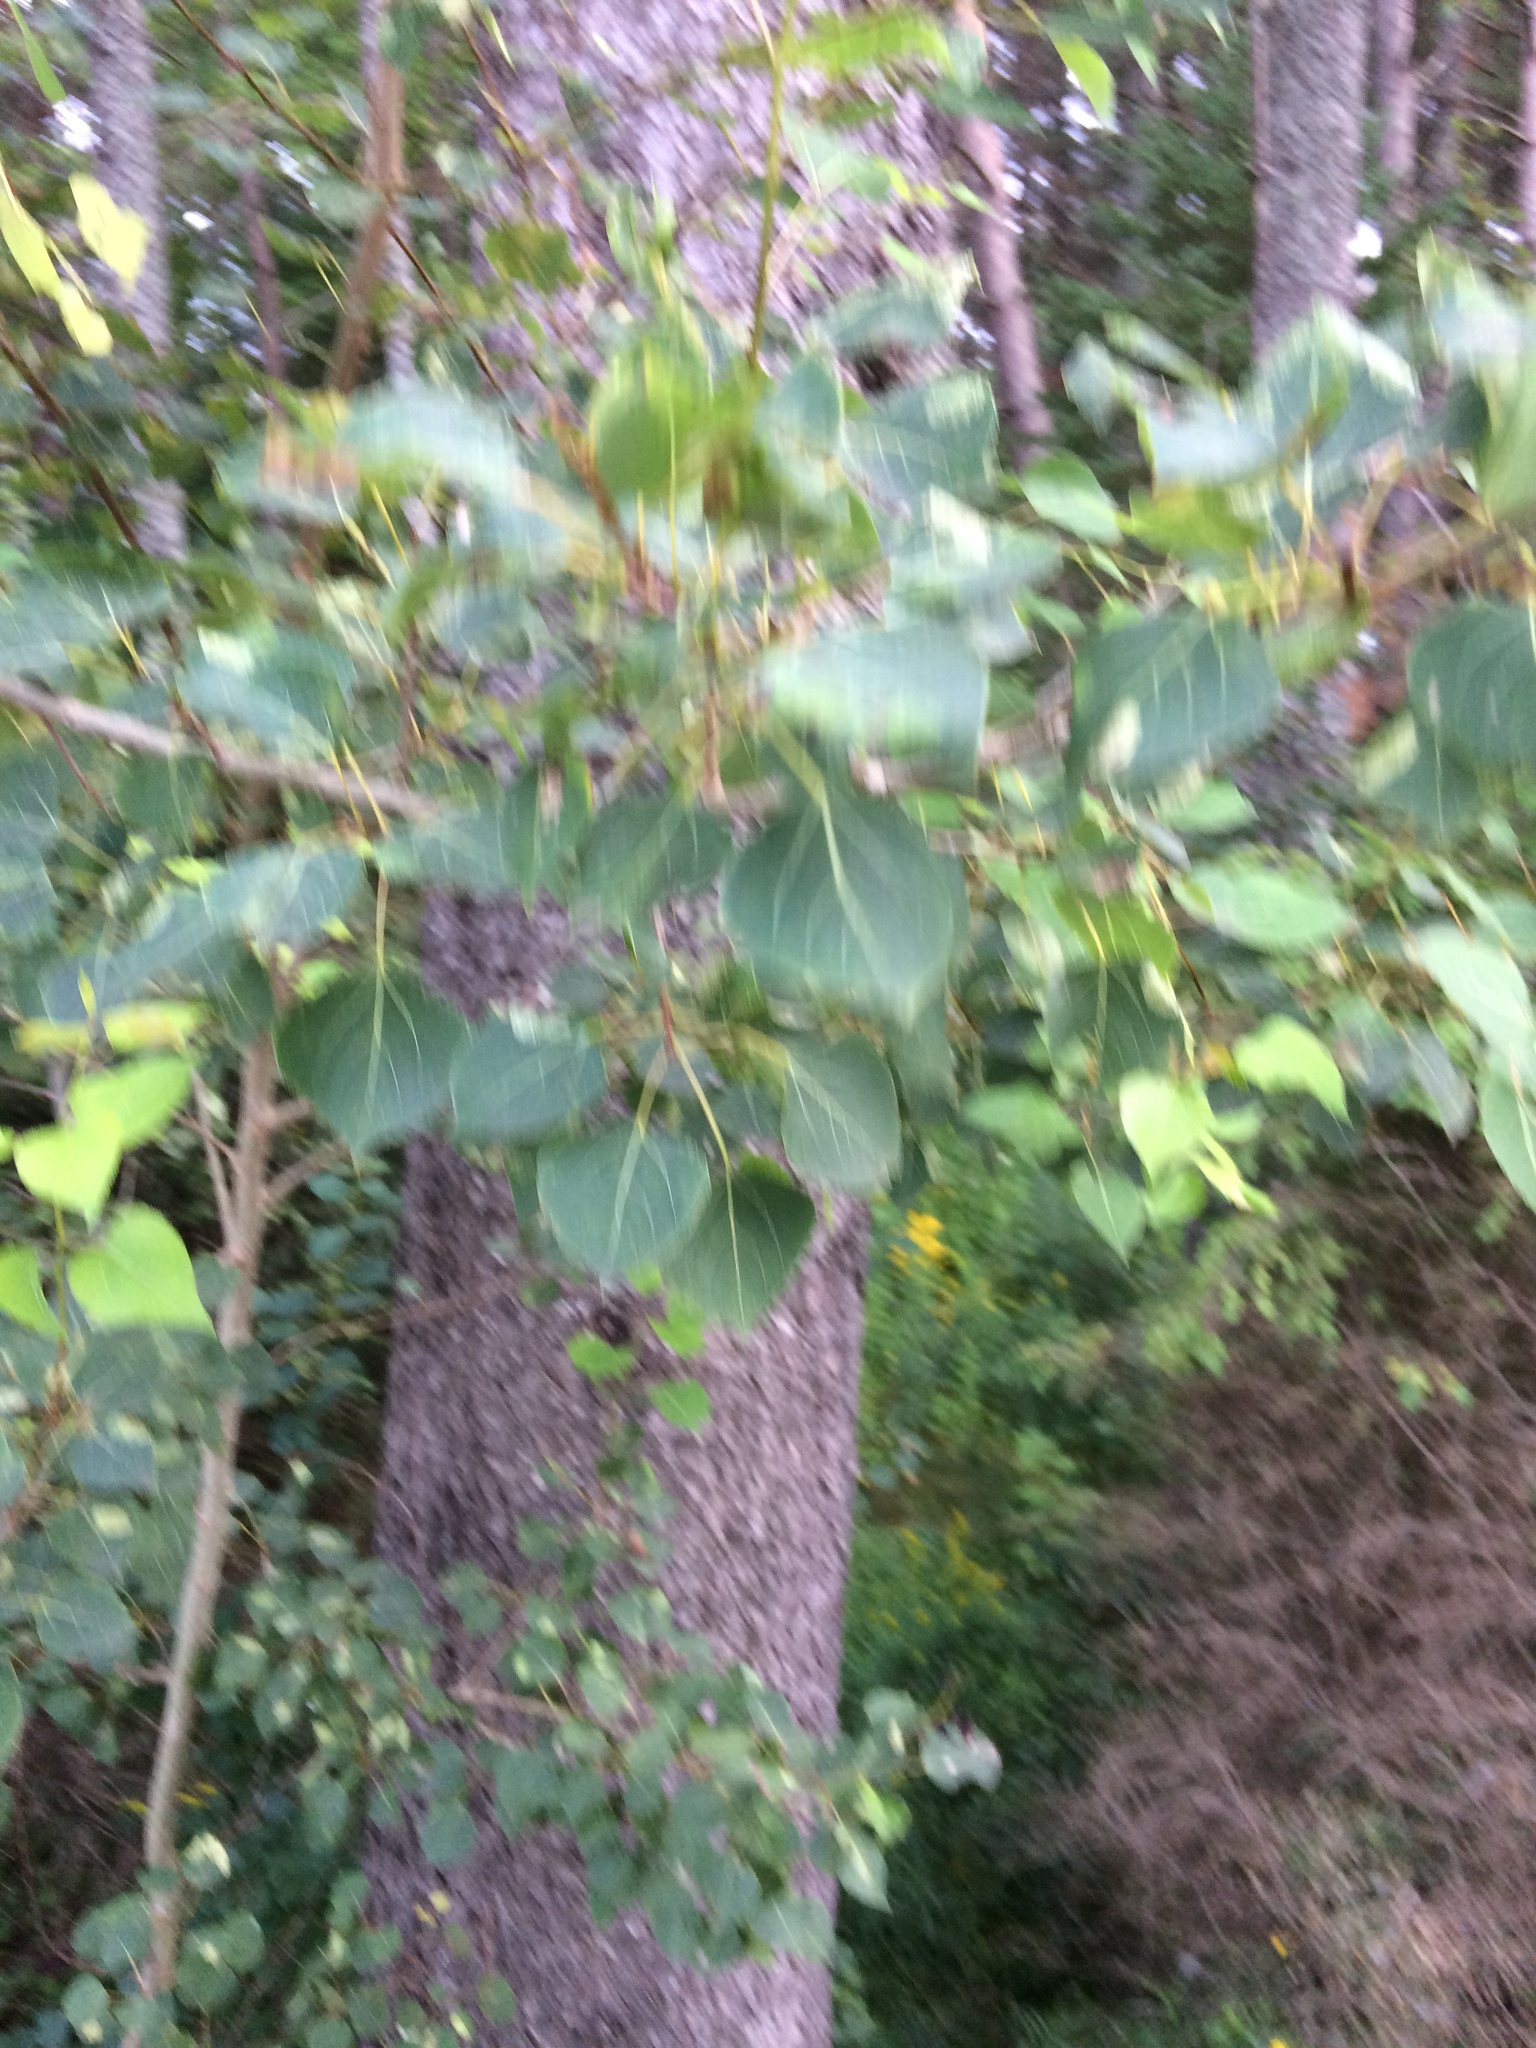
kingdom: Plantae
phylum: Tracheophyta
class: Magnoliopsida
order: Malpighiales
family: Salicaceae
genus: Populus
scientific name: Populus tremuloides
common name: Quaking aspen
